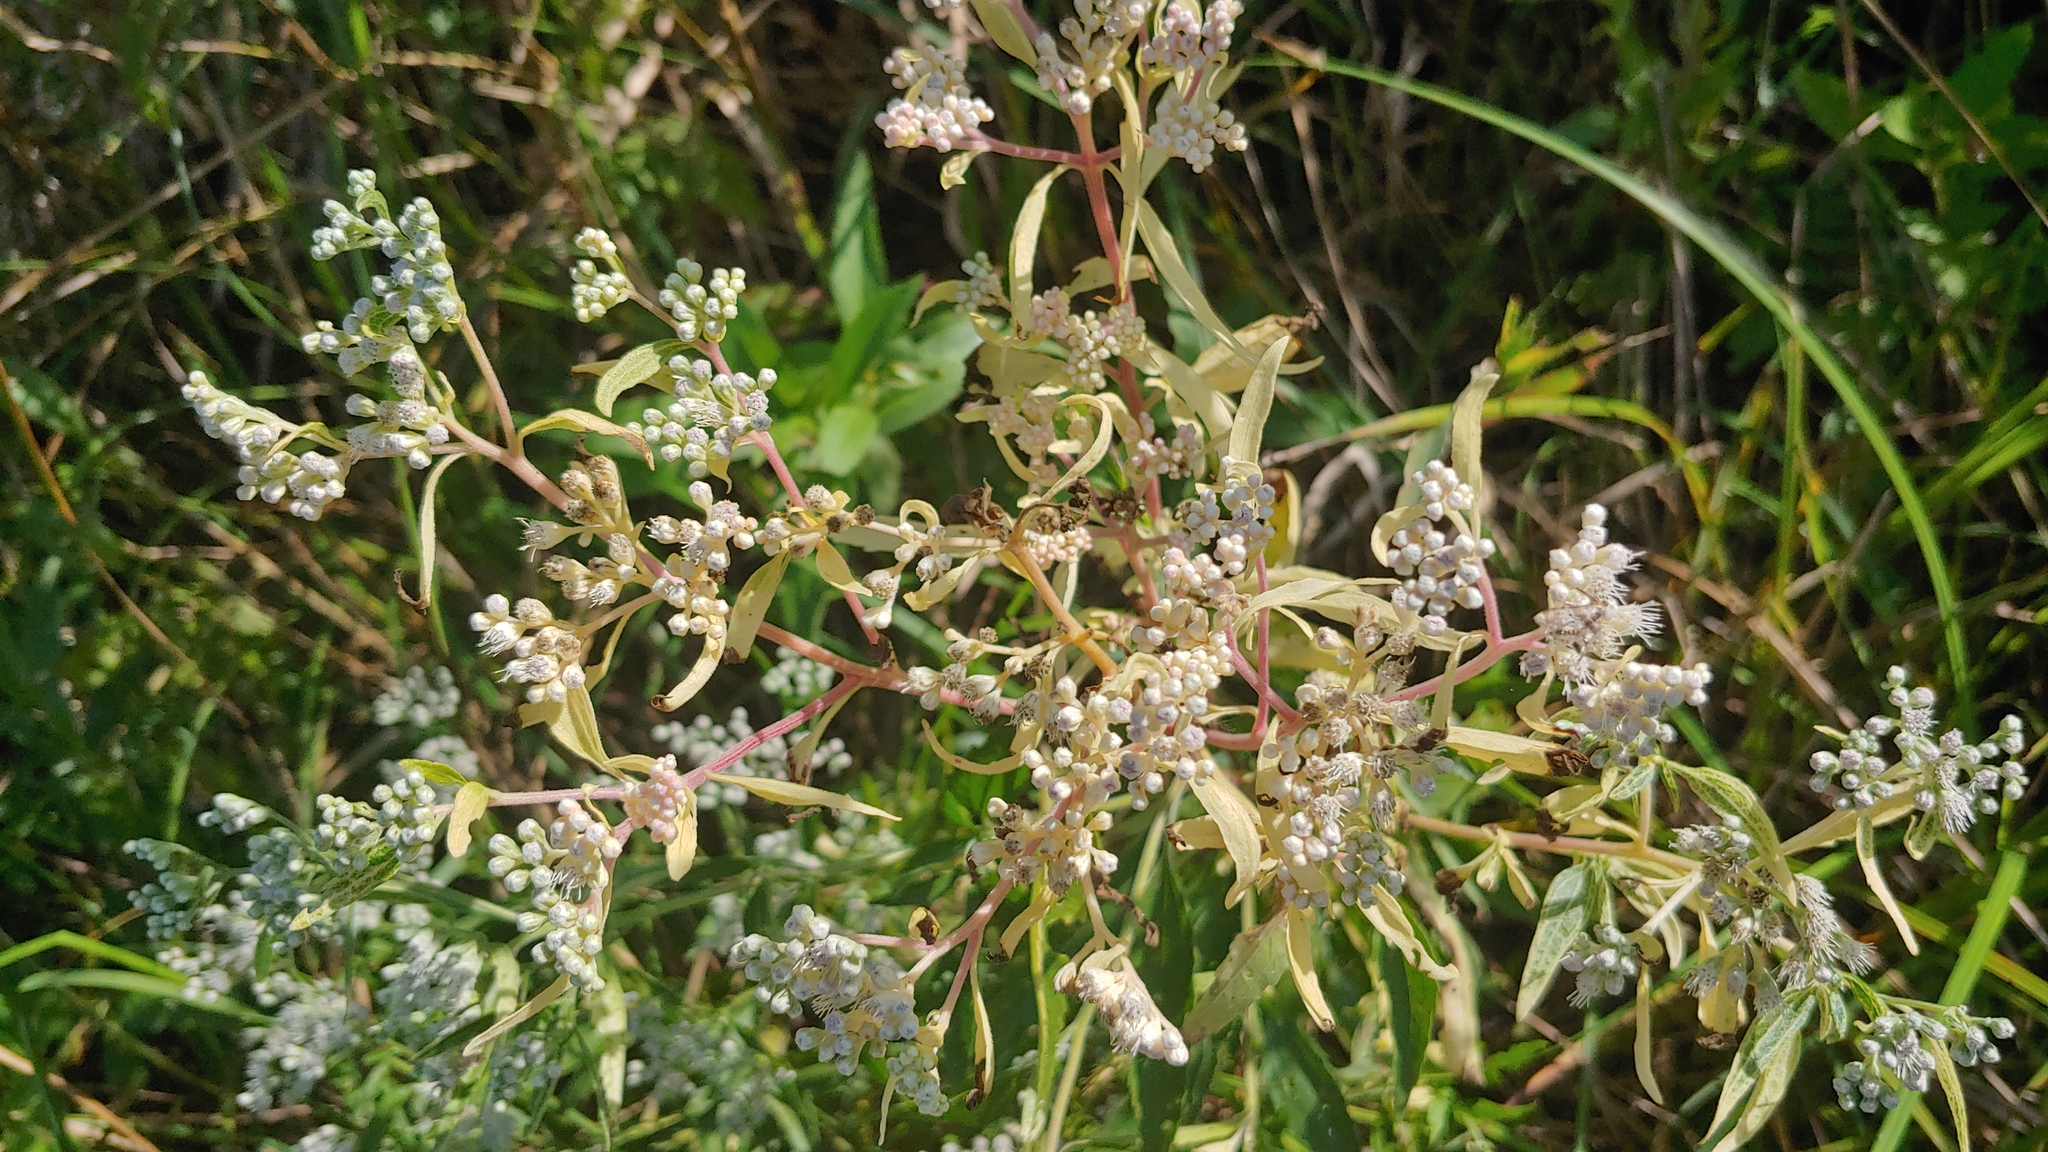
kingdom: Plantae
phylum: Tracheophyta
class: Magnoliopsida
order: Asterales
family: Asteraceae
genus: Eupatorium
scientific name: Eupatorium serotinum
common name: Late boneset
